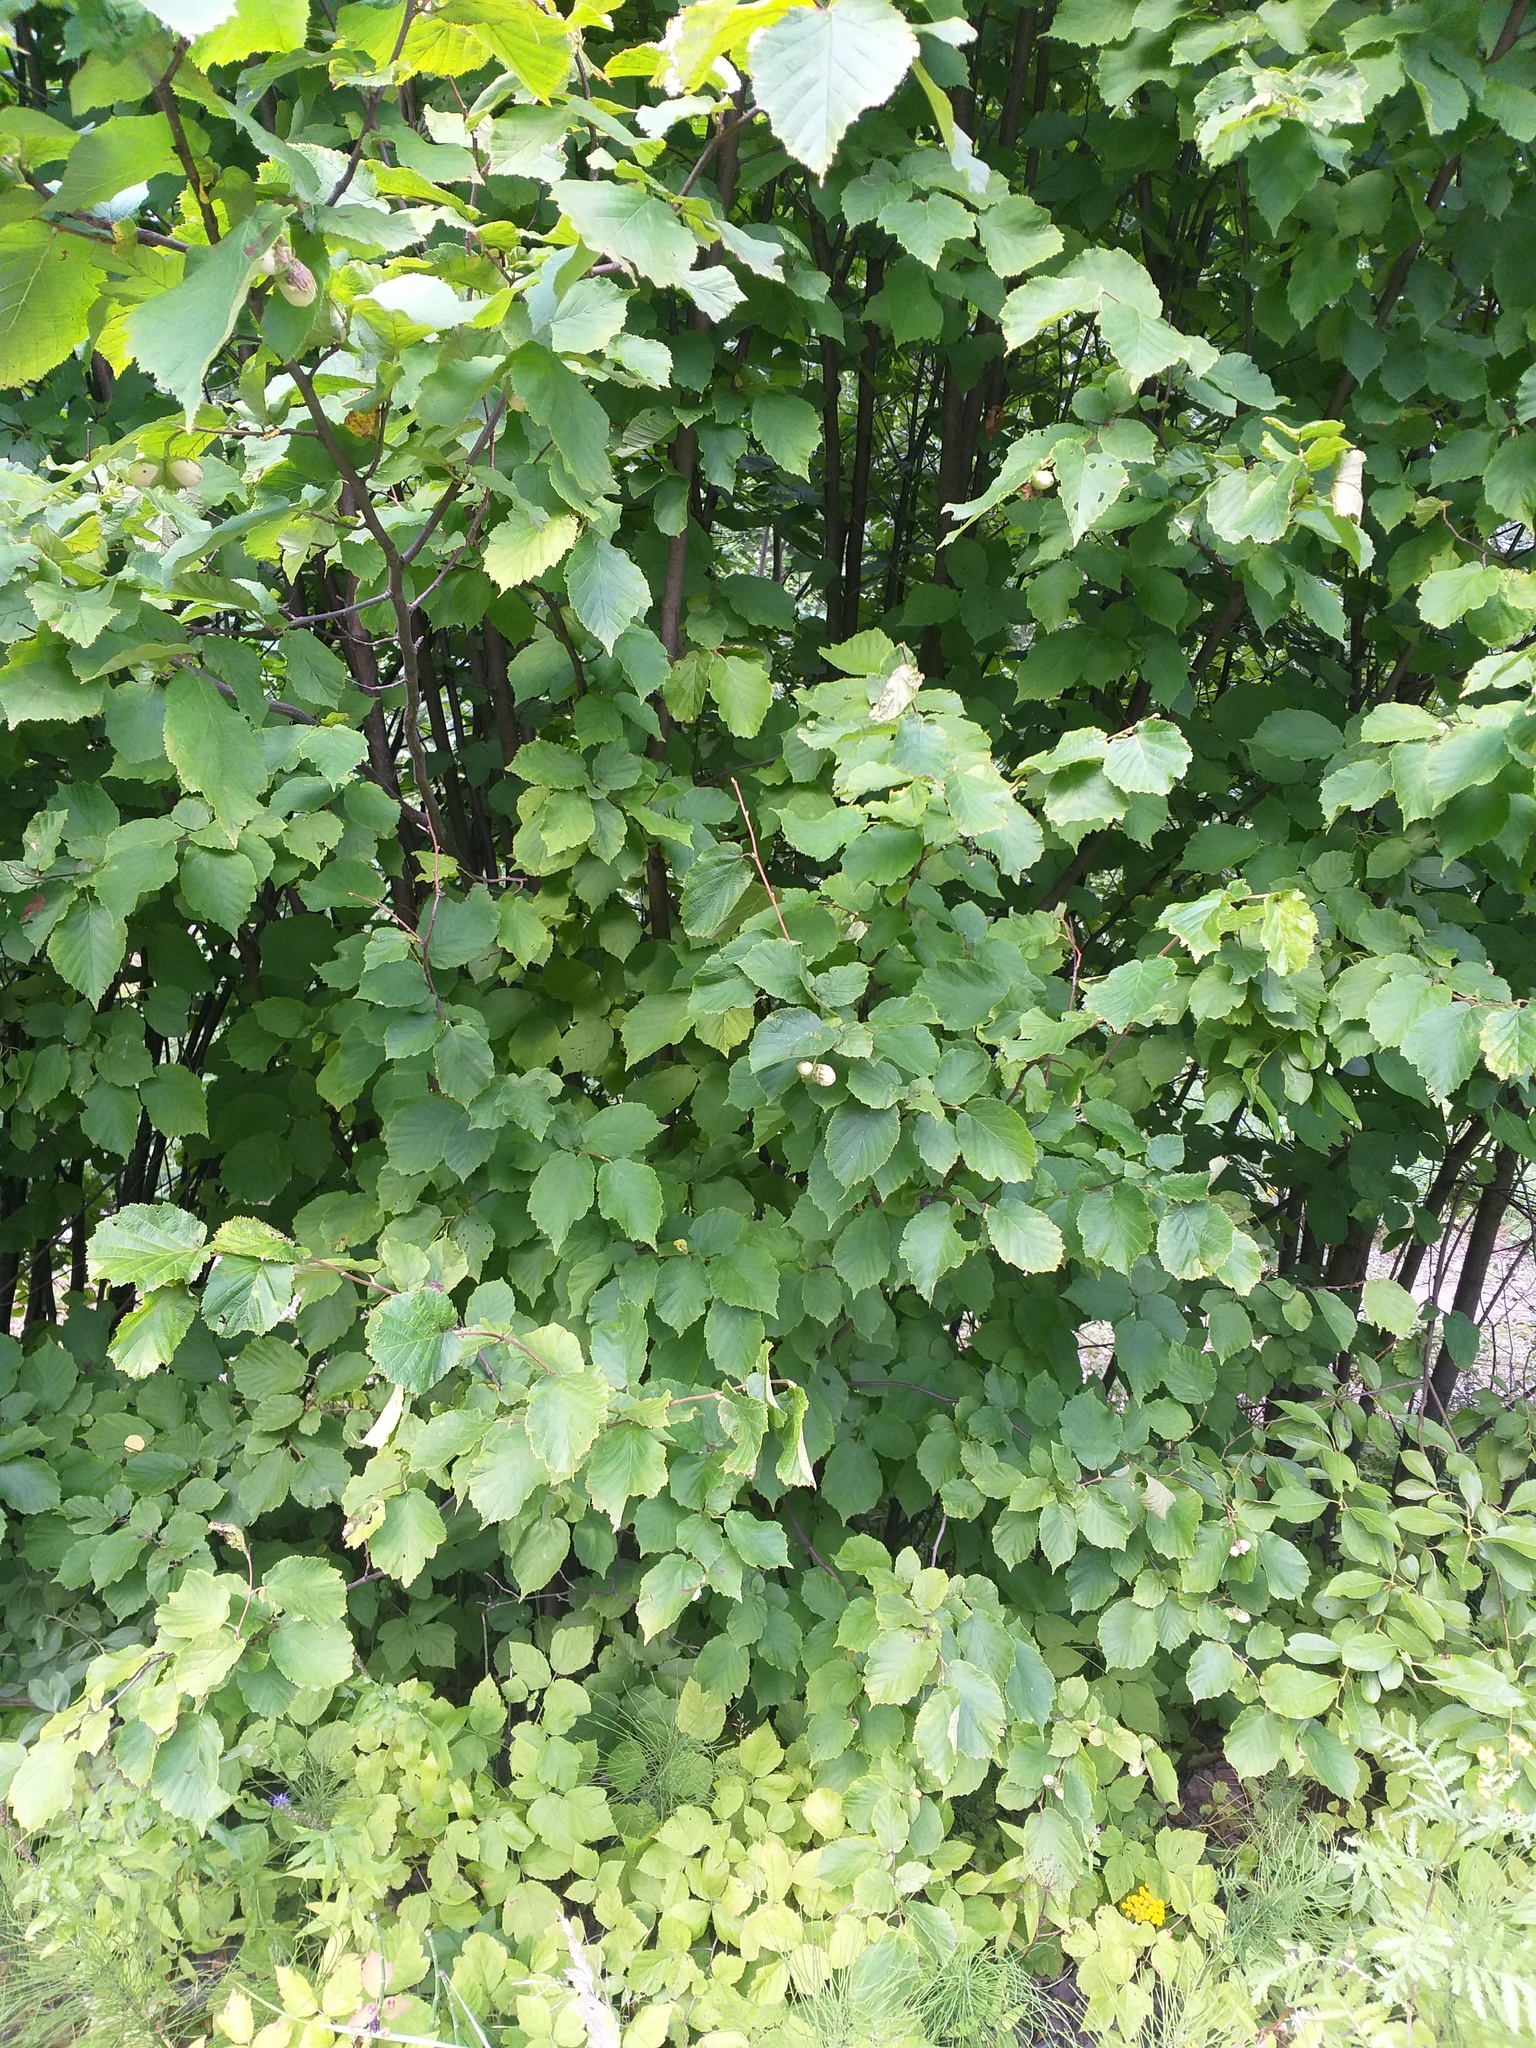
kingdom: Plantae
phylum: Tracheophyta
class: Magnoliopsida
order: Fagales
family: Betulaceae
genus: Corylus
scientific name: Corylus avellana
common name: European hazel
